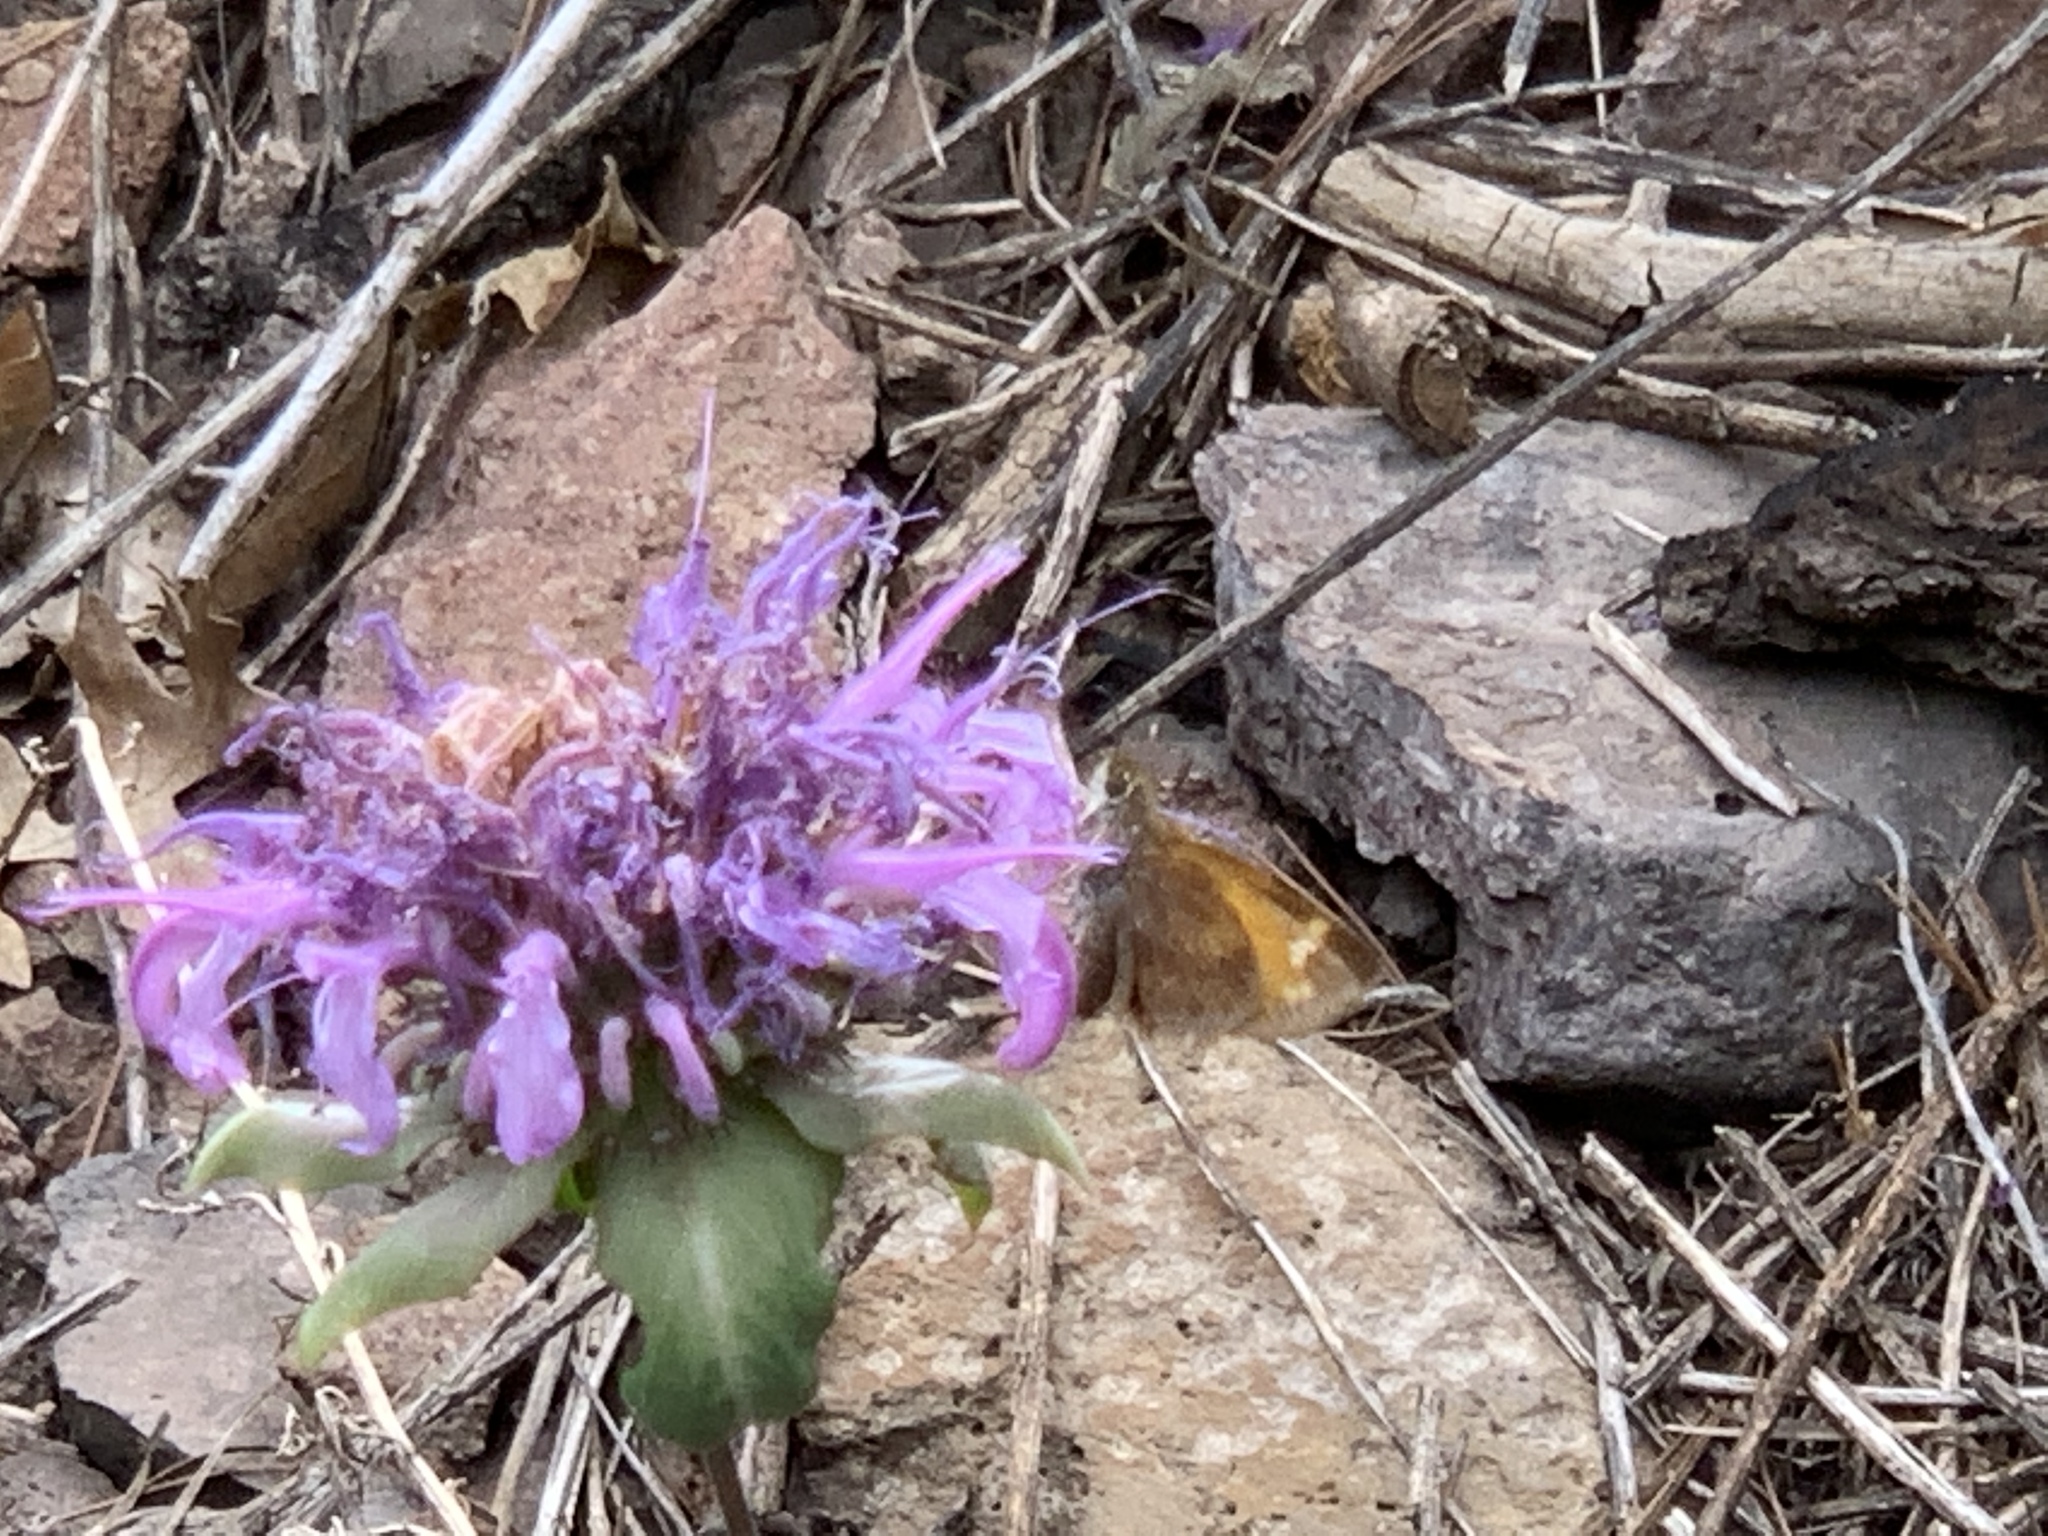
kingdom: Plantae
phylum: Tracheophyta
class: Magnoliopsida
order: Lamiales
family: Lamiaceae
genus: Monarda
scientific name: Monarda fistulosa
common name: Purple beebalm
